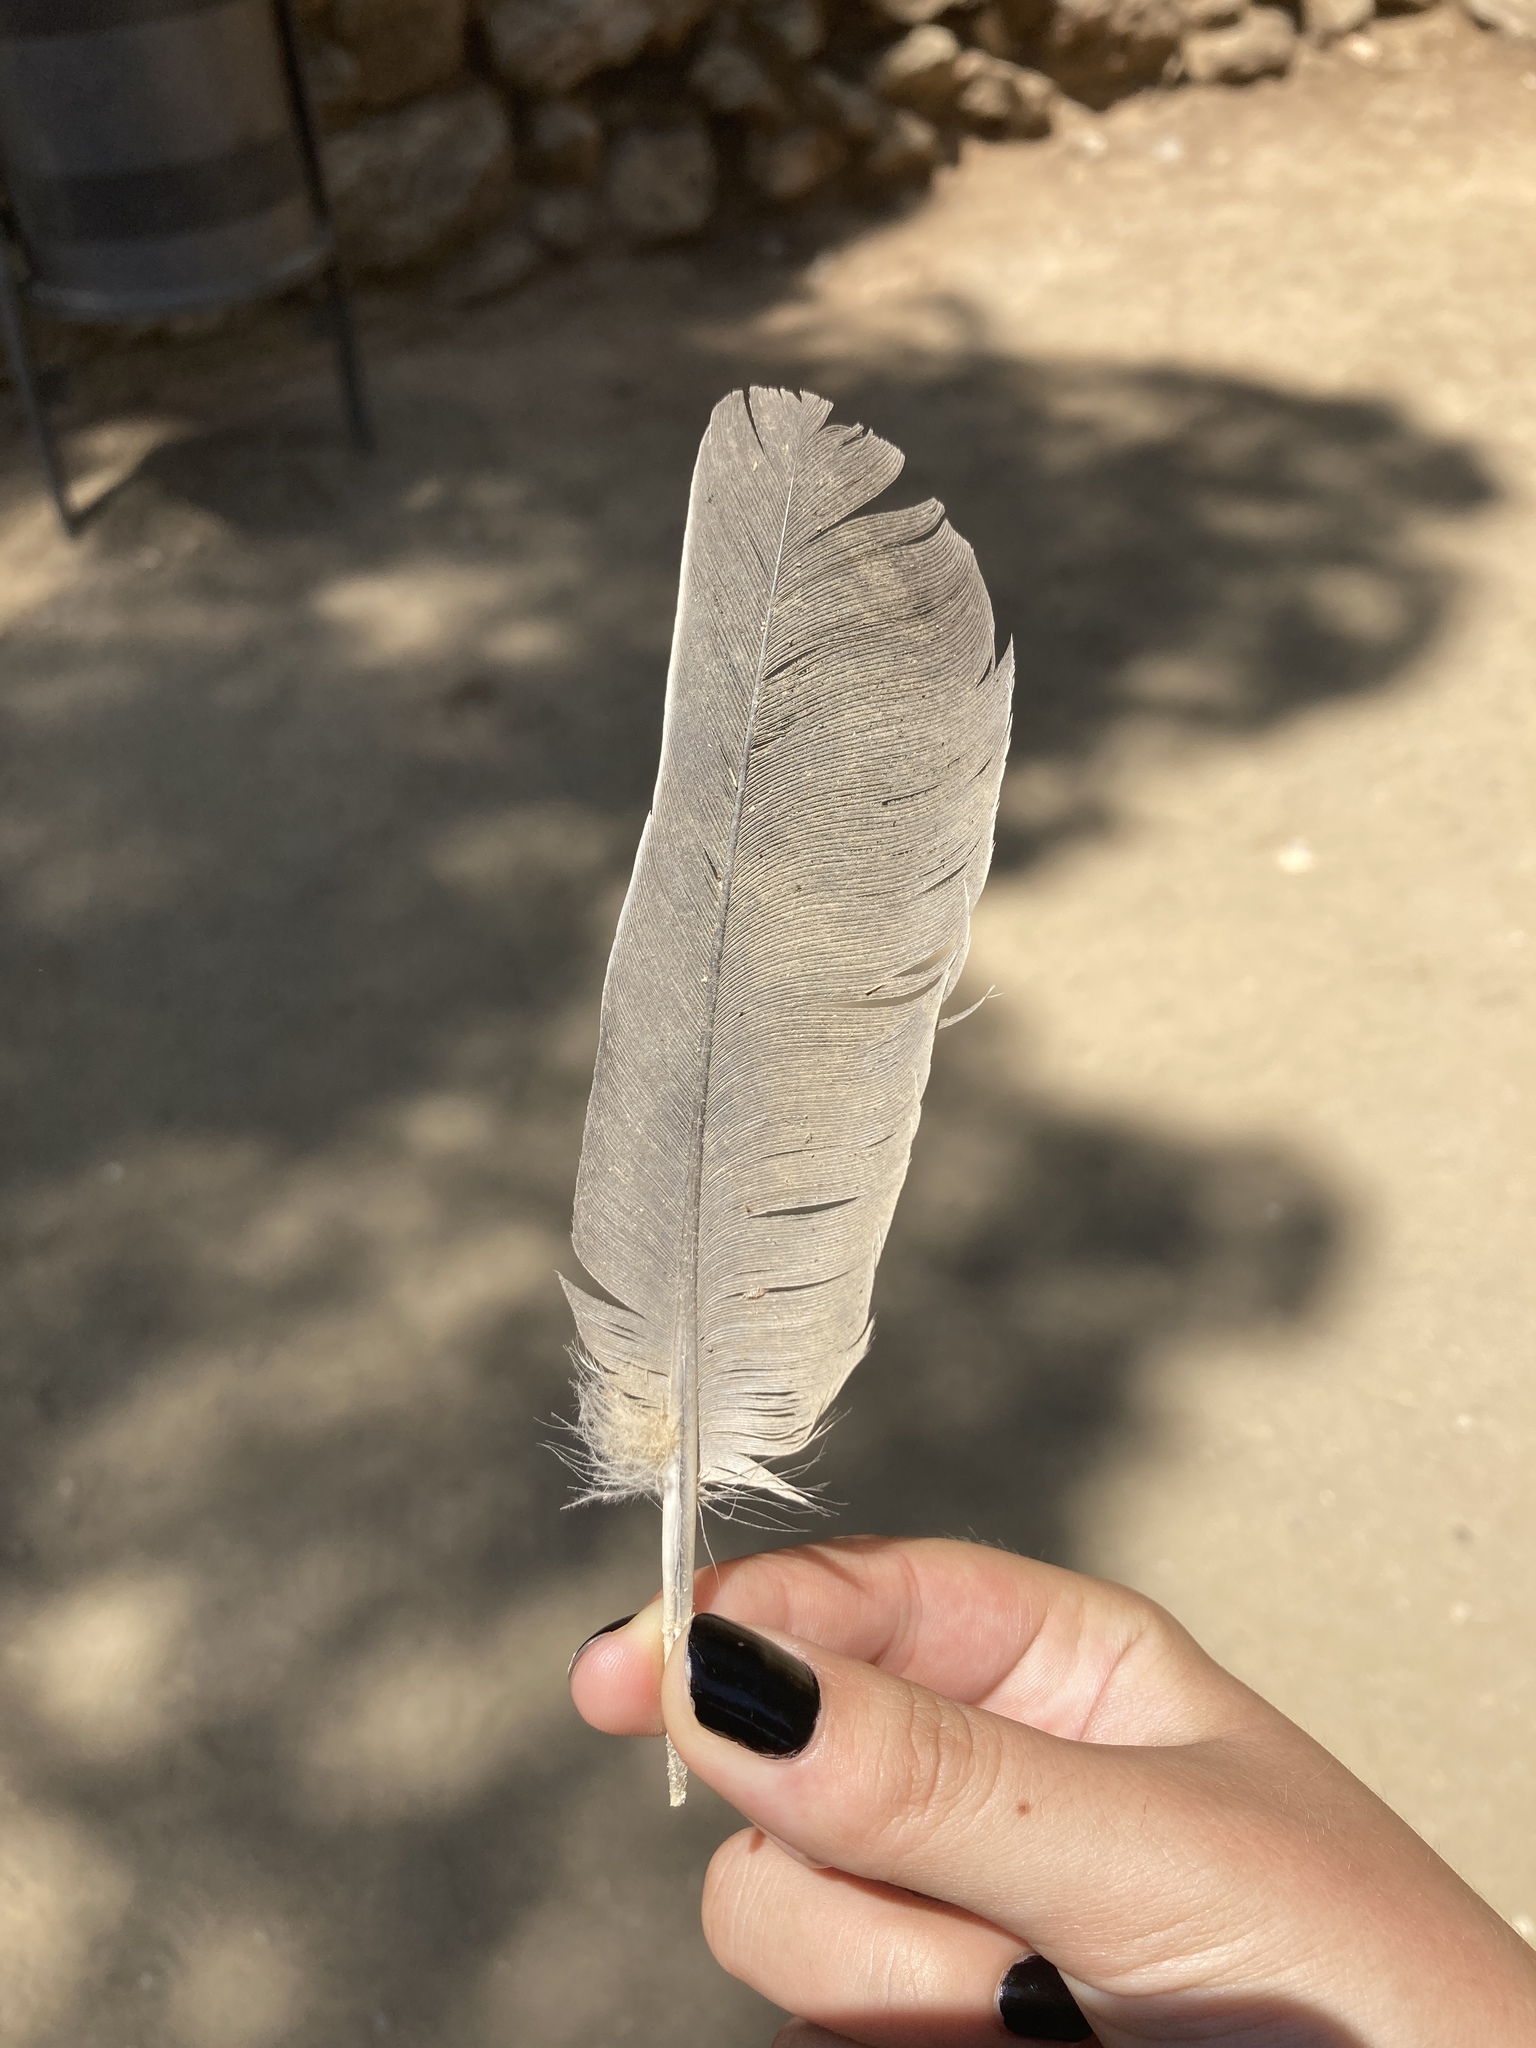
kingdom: Animalia
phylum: Chordata
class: Aves
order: Columbiformes
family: Columbidae
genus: Columba
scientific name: Columba palumbus
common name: Common wood pigeon
